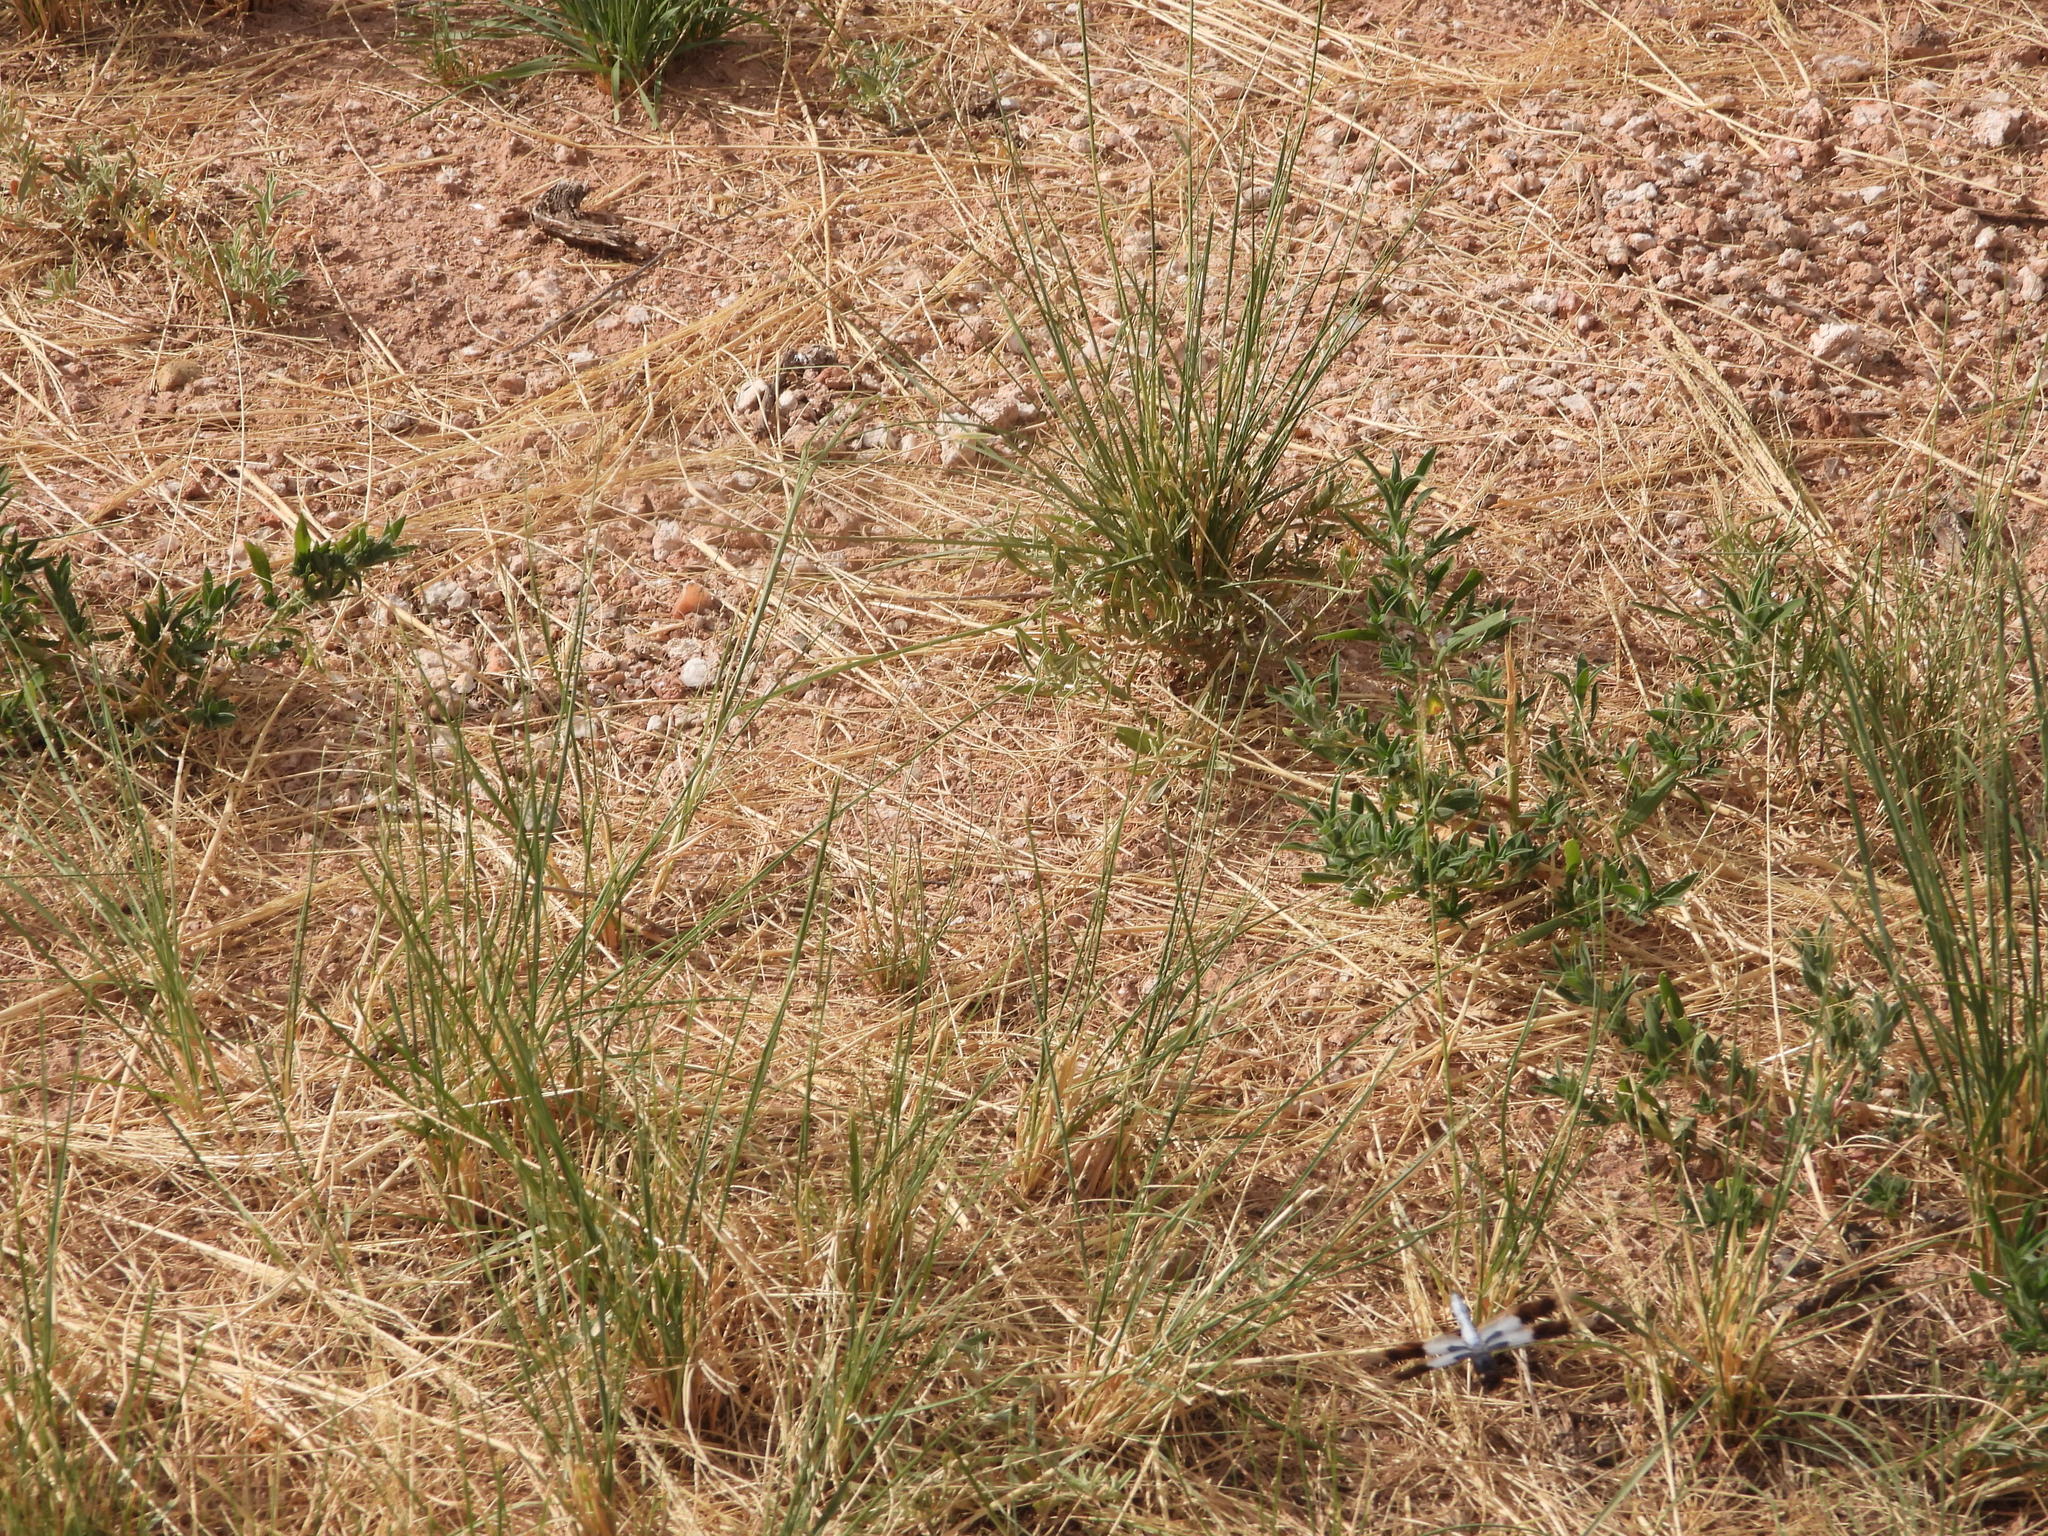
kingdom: Animalia
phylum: Arthropoda
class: Insecta
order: Odonata
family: Libellulidae
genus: Plathemis
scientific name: Plathemis subornata
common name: Desert whitetail
